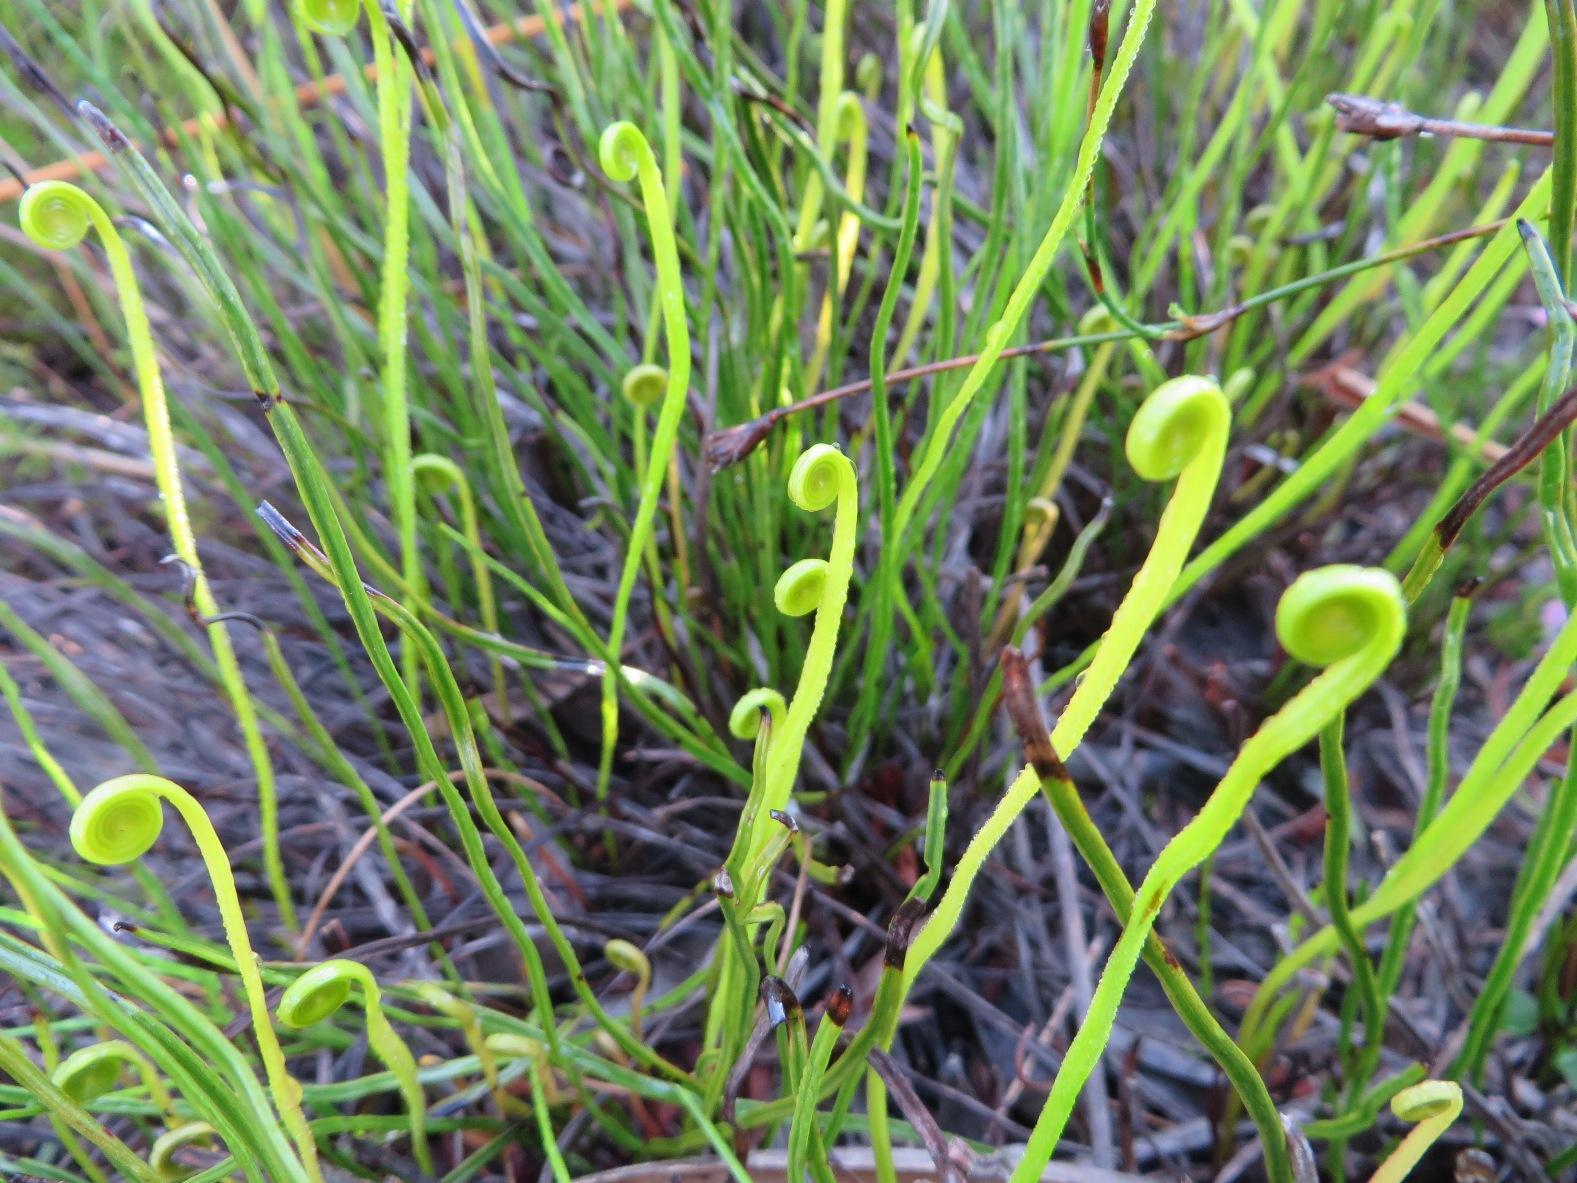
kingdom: Plantae
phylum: Tracheophyta
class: Polypodiopsida
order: Schizaeales
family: Schizaeaceae
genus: Schizaea
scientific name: Schizaea pectinata
